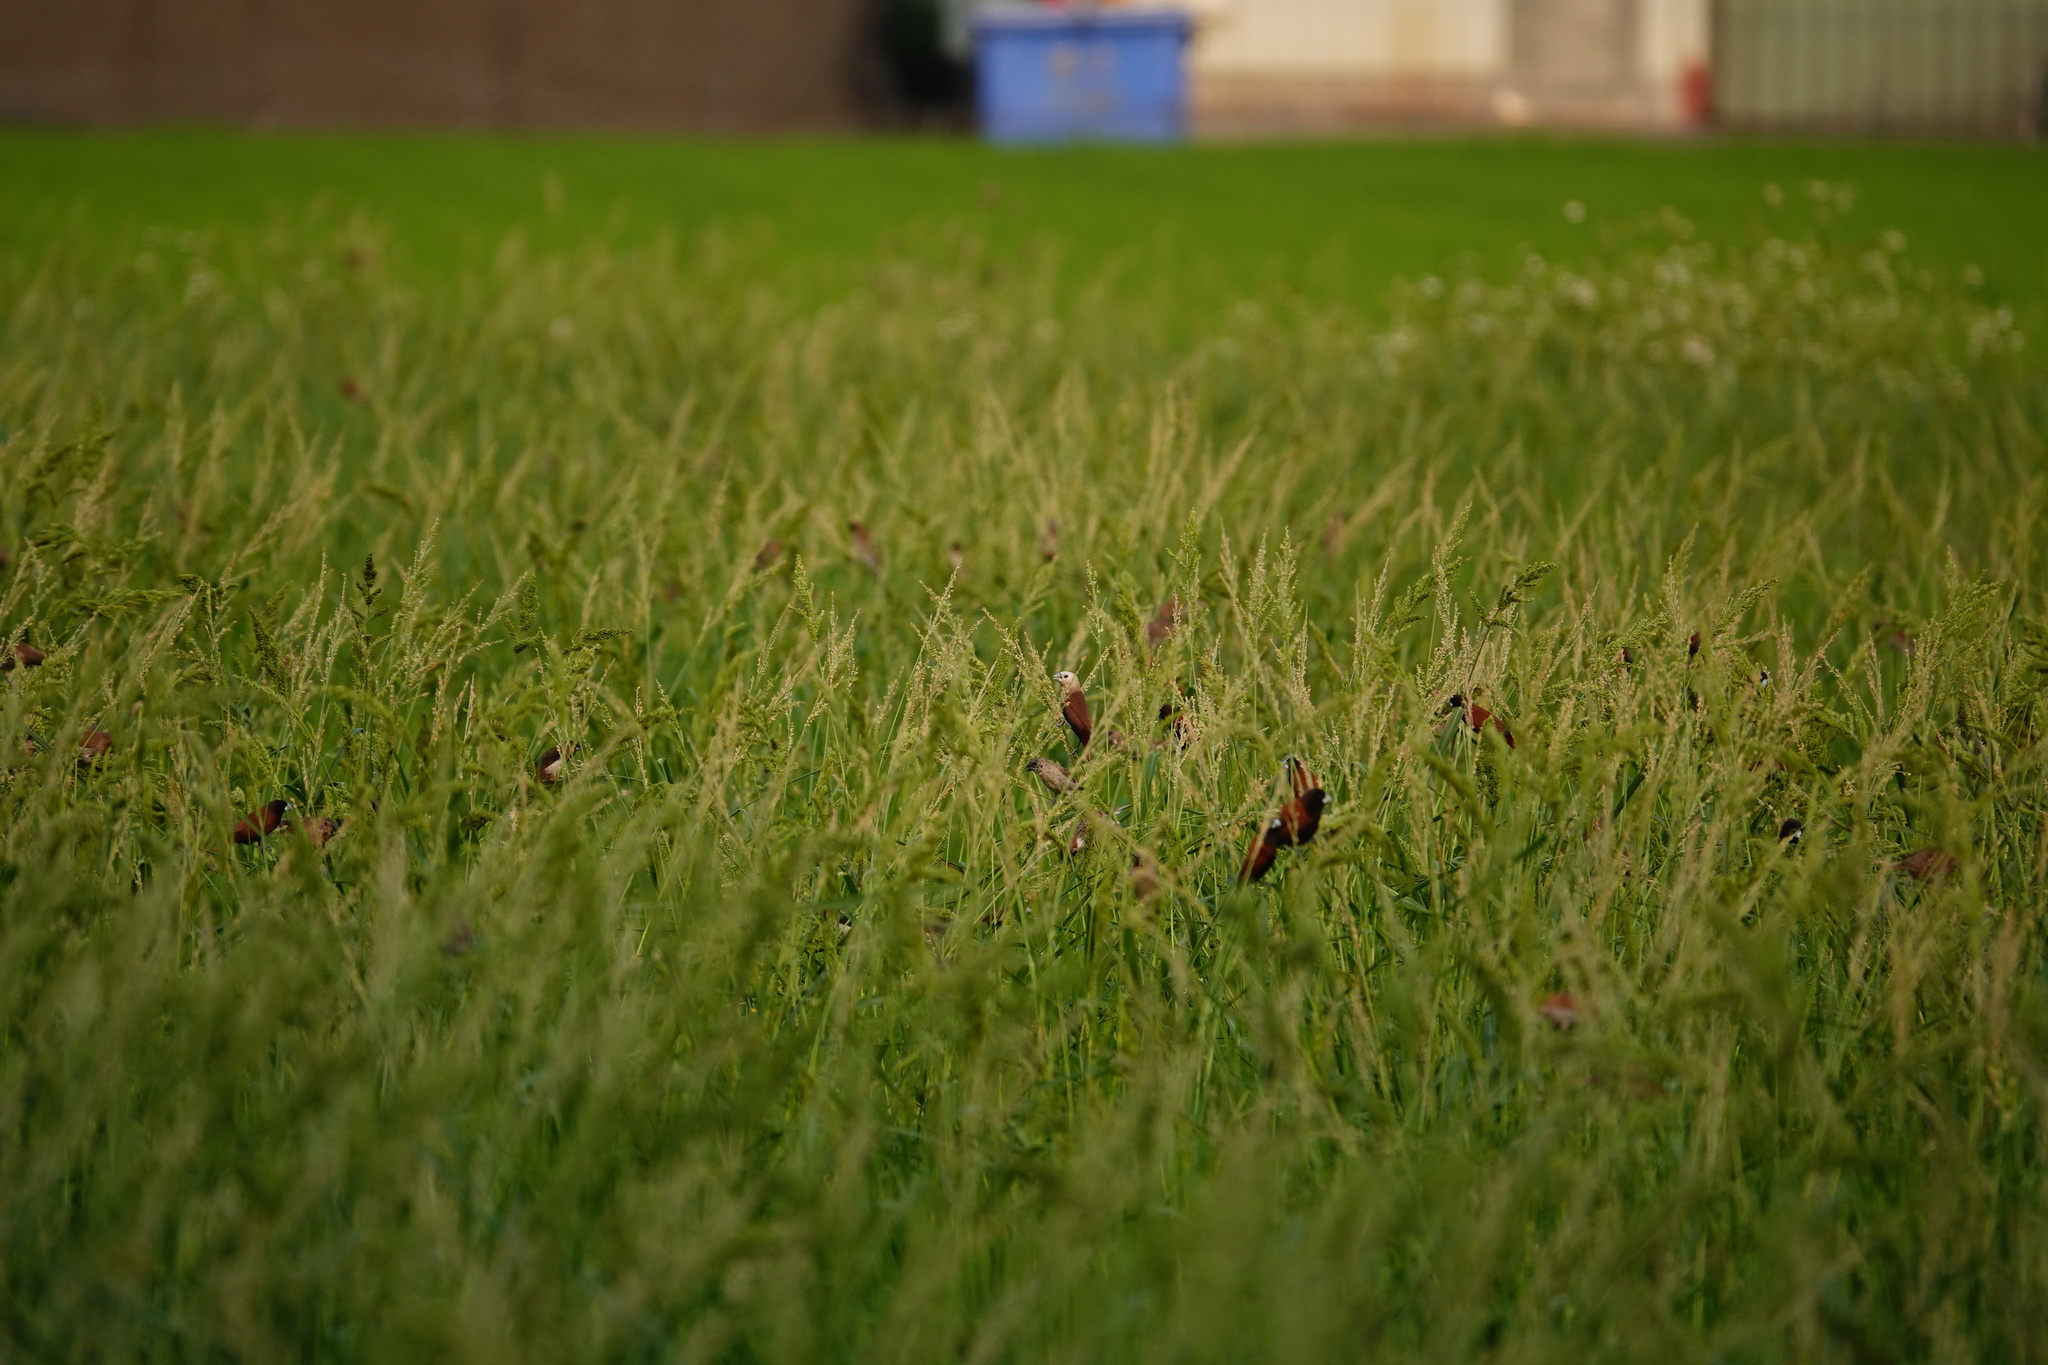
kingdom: Animalia
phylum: Chordata
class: Aves
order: Passeriformes
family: Estrildidae
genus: Lonchura
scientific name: Lonchura maja
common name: White-headed munia
